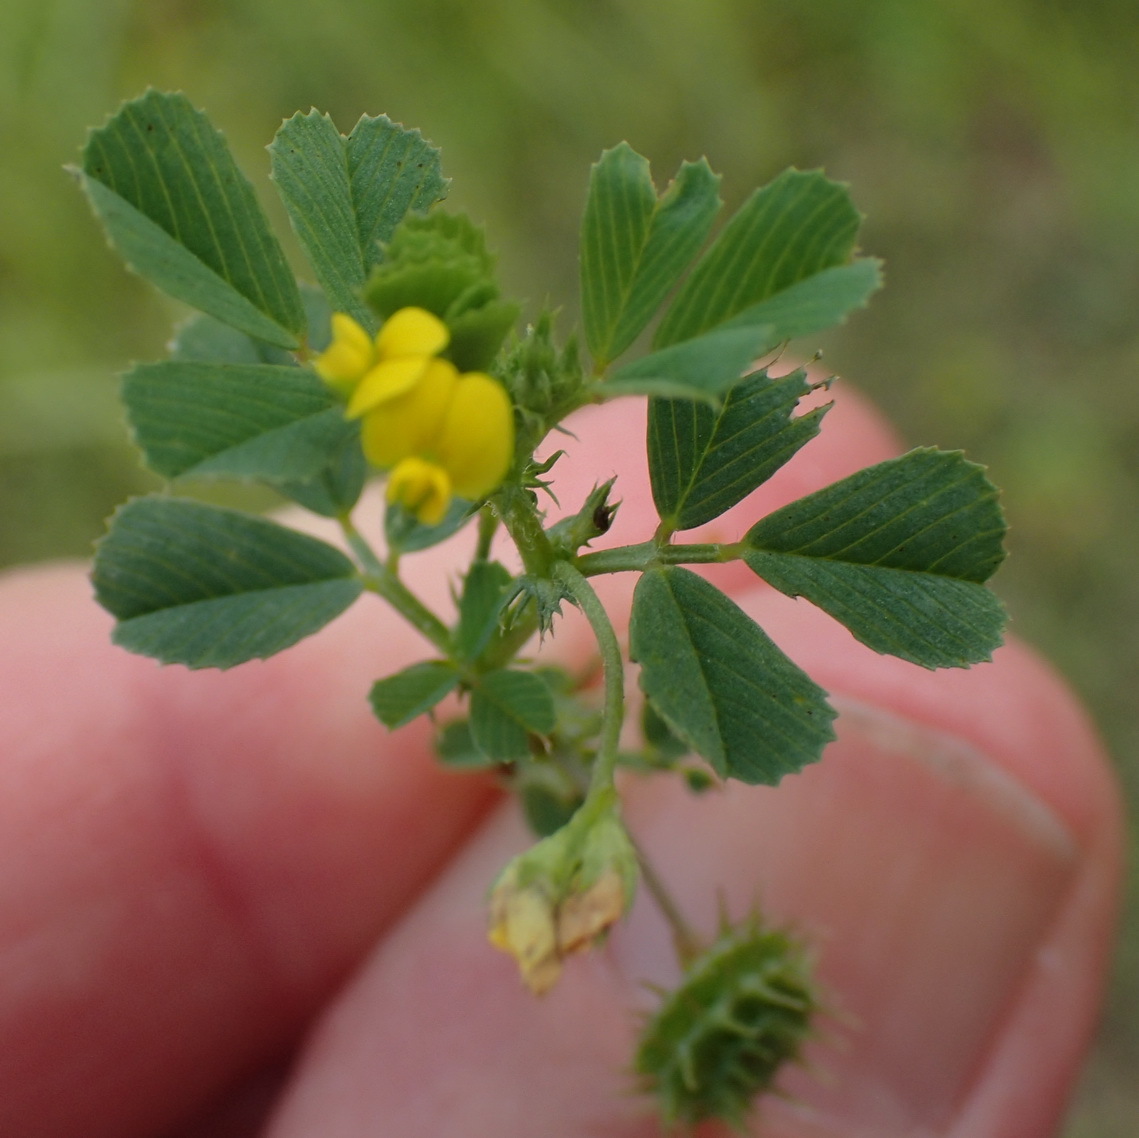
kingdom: Plantae
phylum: Tracheophyta
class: Magnoliopsida
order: Fabales
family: Fabaceae
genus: Medicago
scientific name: Medicago polymorpha
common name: Burclover
